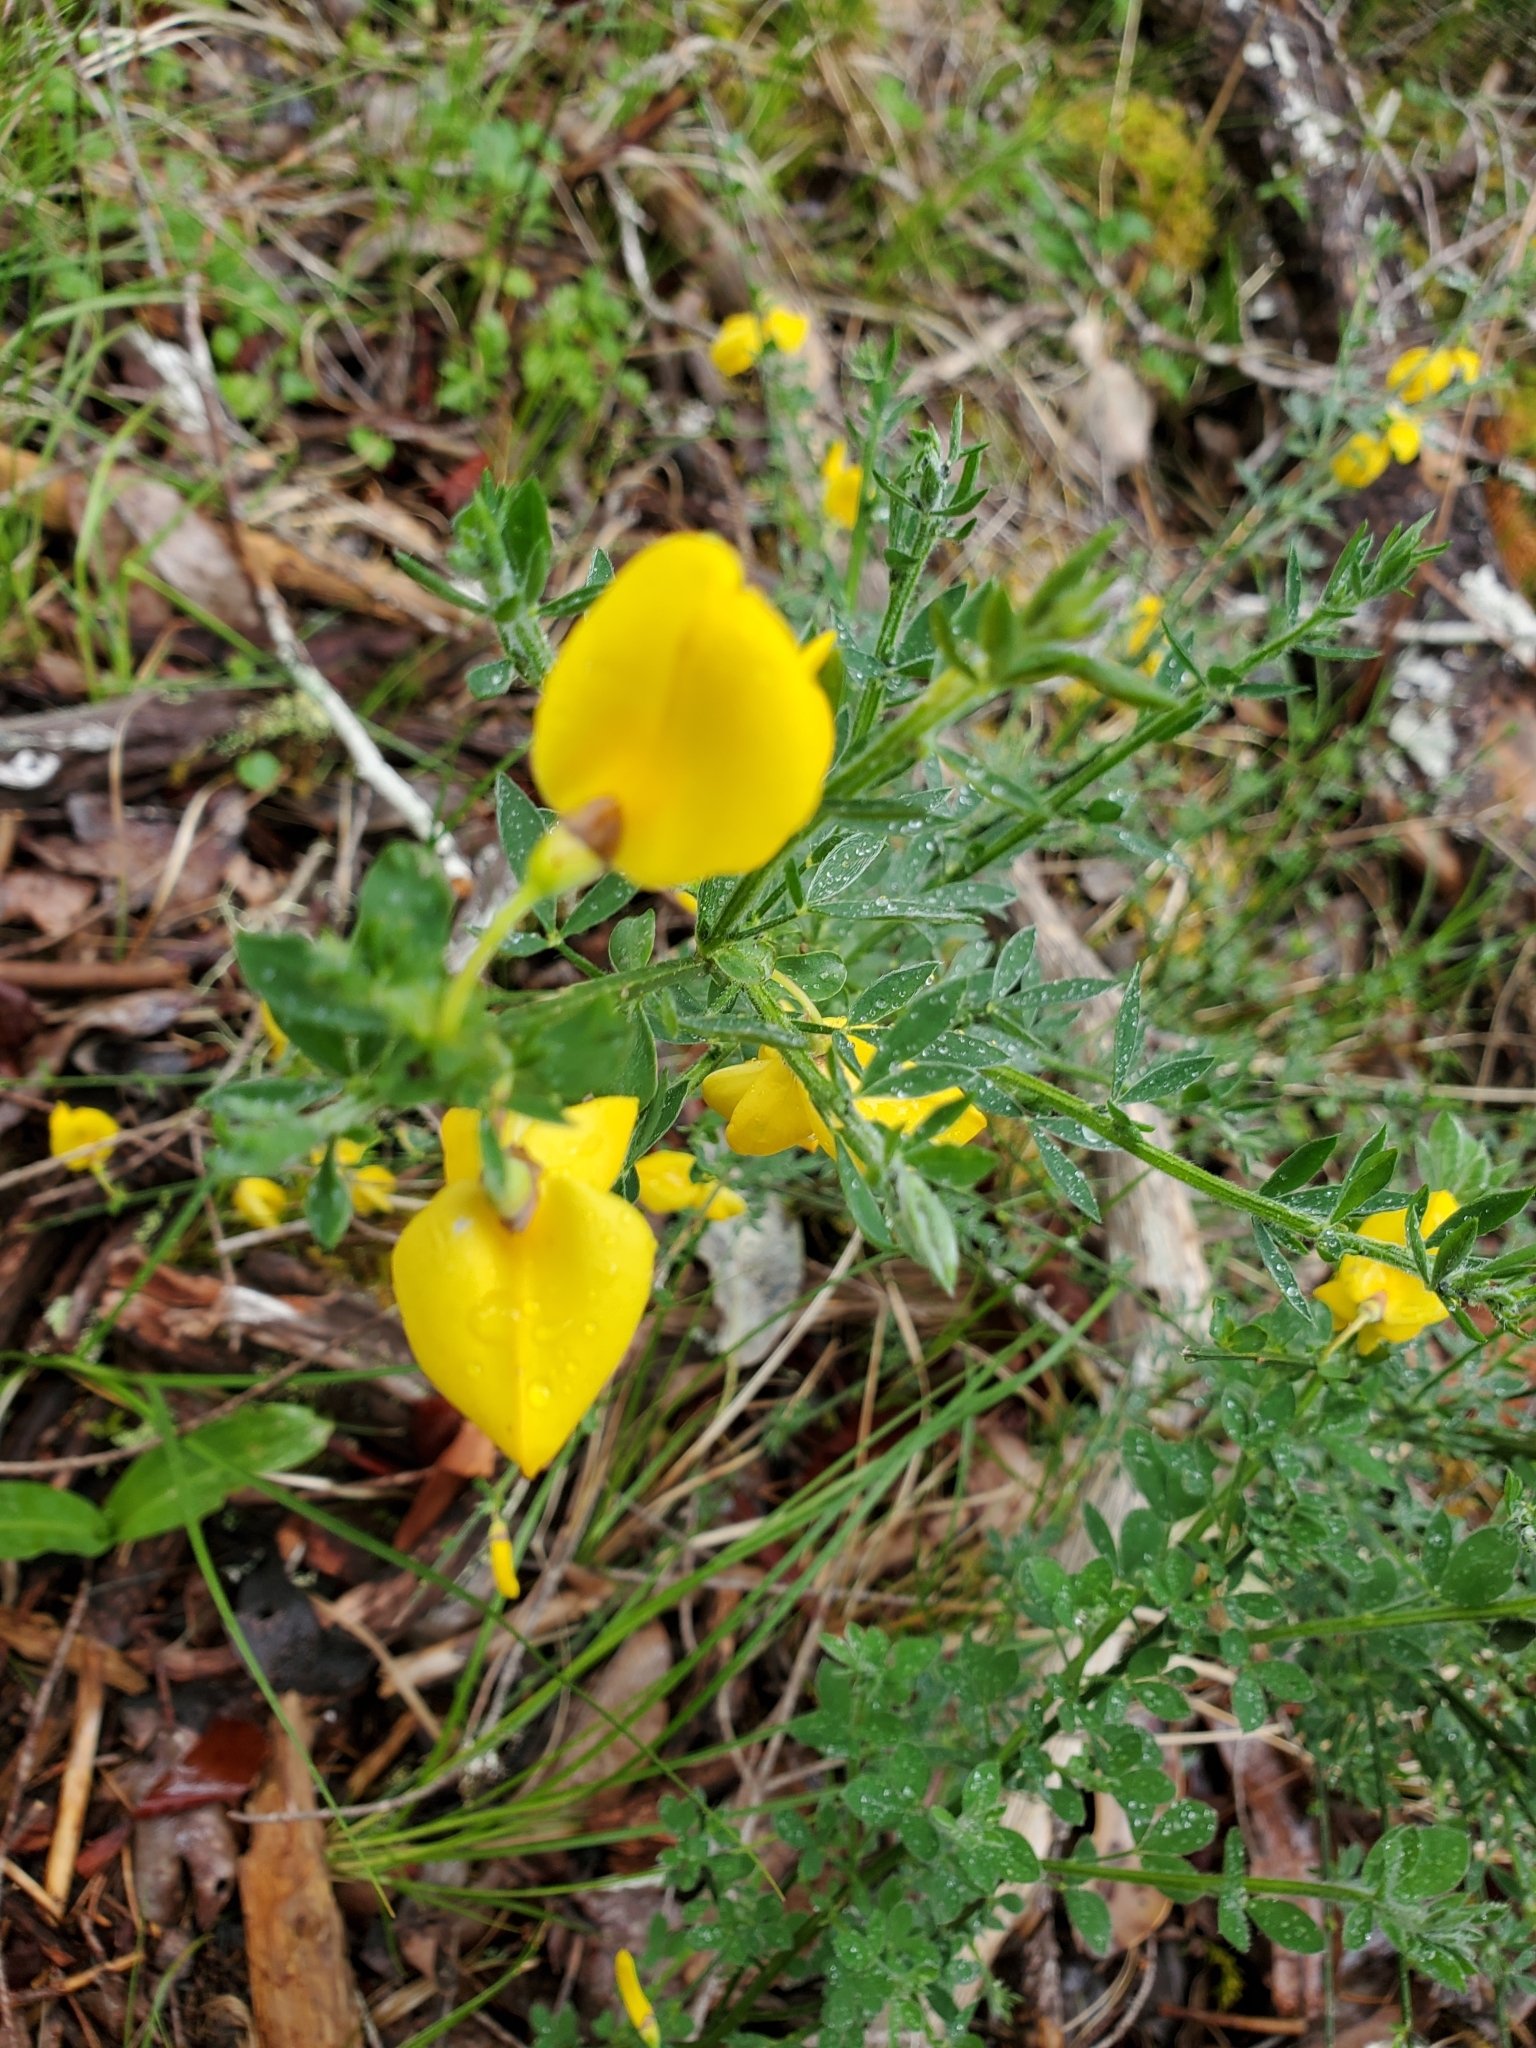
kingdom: Plantae
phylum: Tracheophyta
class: Magnoliopsida
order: Fabales
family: Fabaceae
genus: Cytisus
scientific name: Cytisus scoparius
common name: Scotch broom
